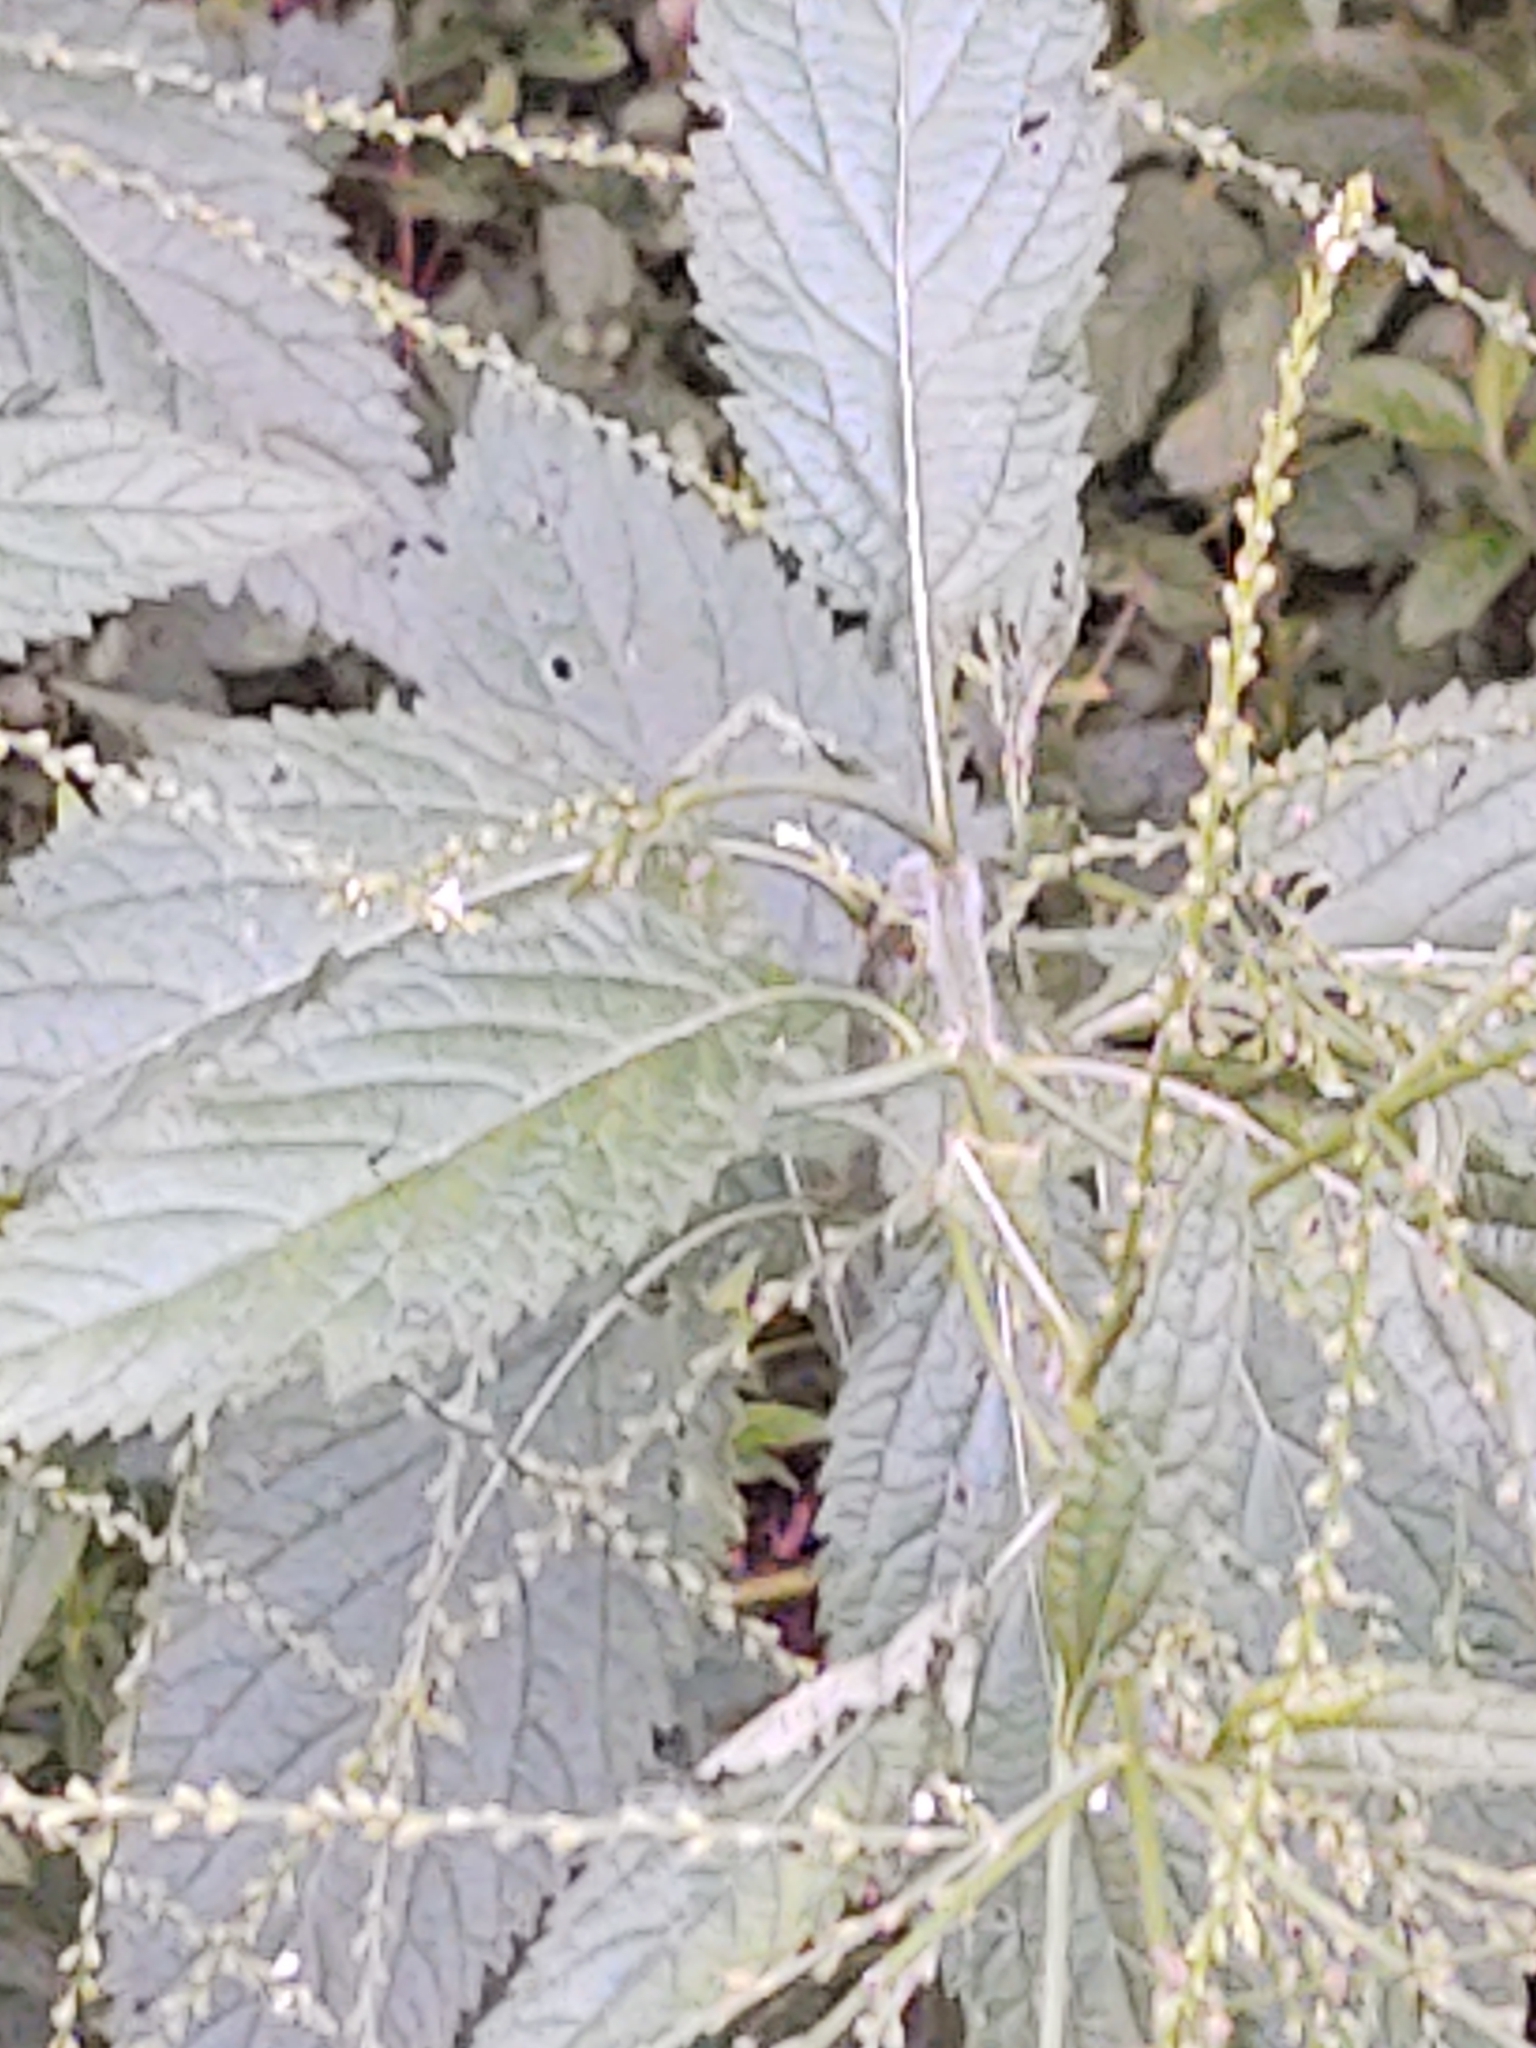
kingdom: Plantae
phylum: Tracheophyta
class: Magnoliopsida
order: Lamiales
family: Verbenaceae
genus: Verbena
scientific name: Verbena urticifolia
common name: Nettle-leaved vervain
